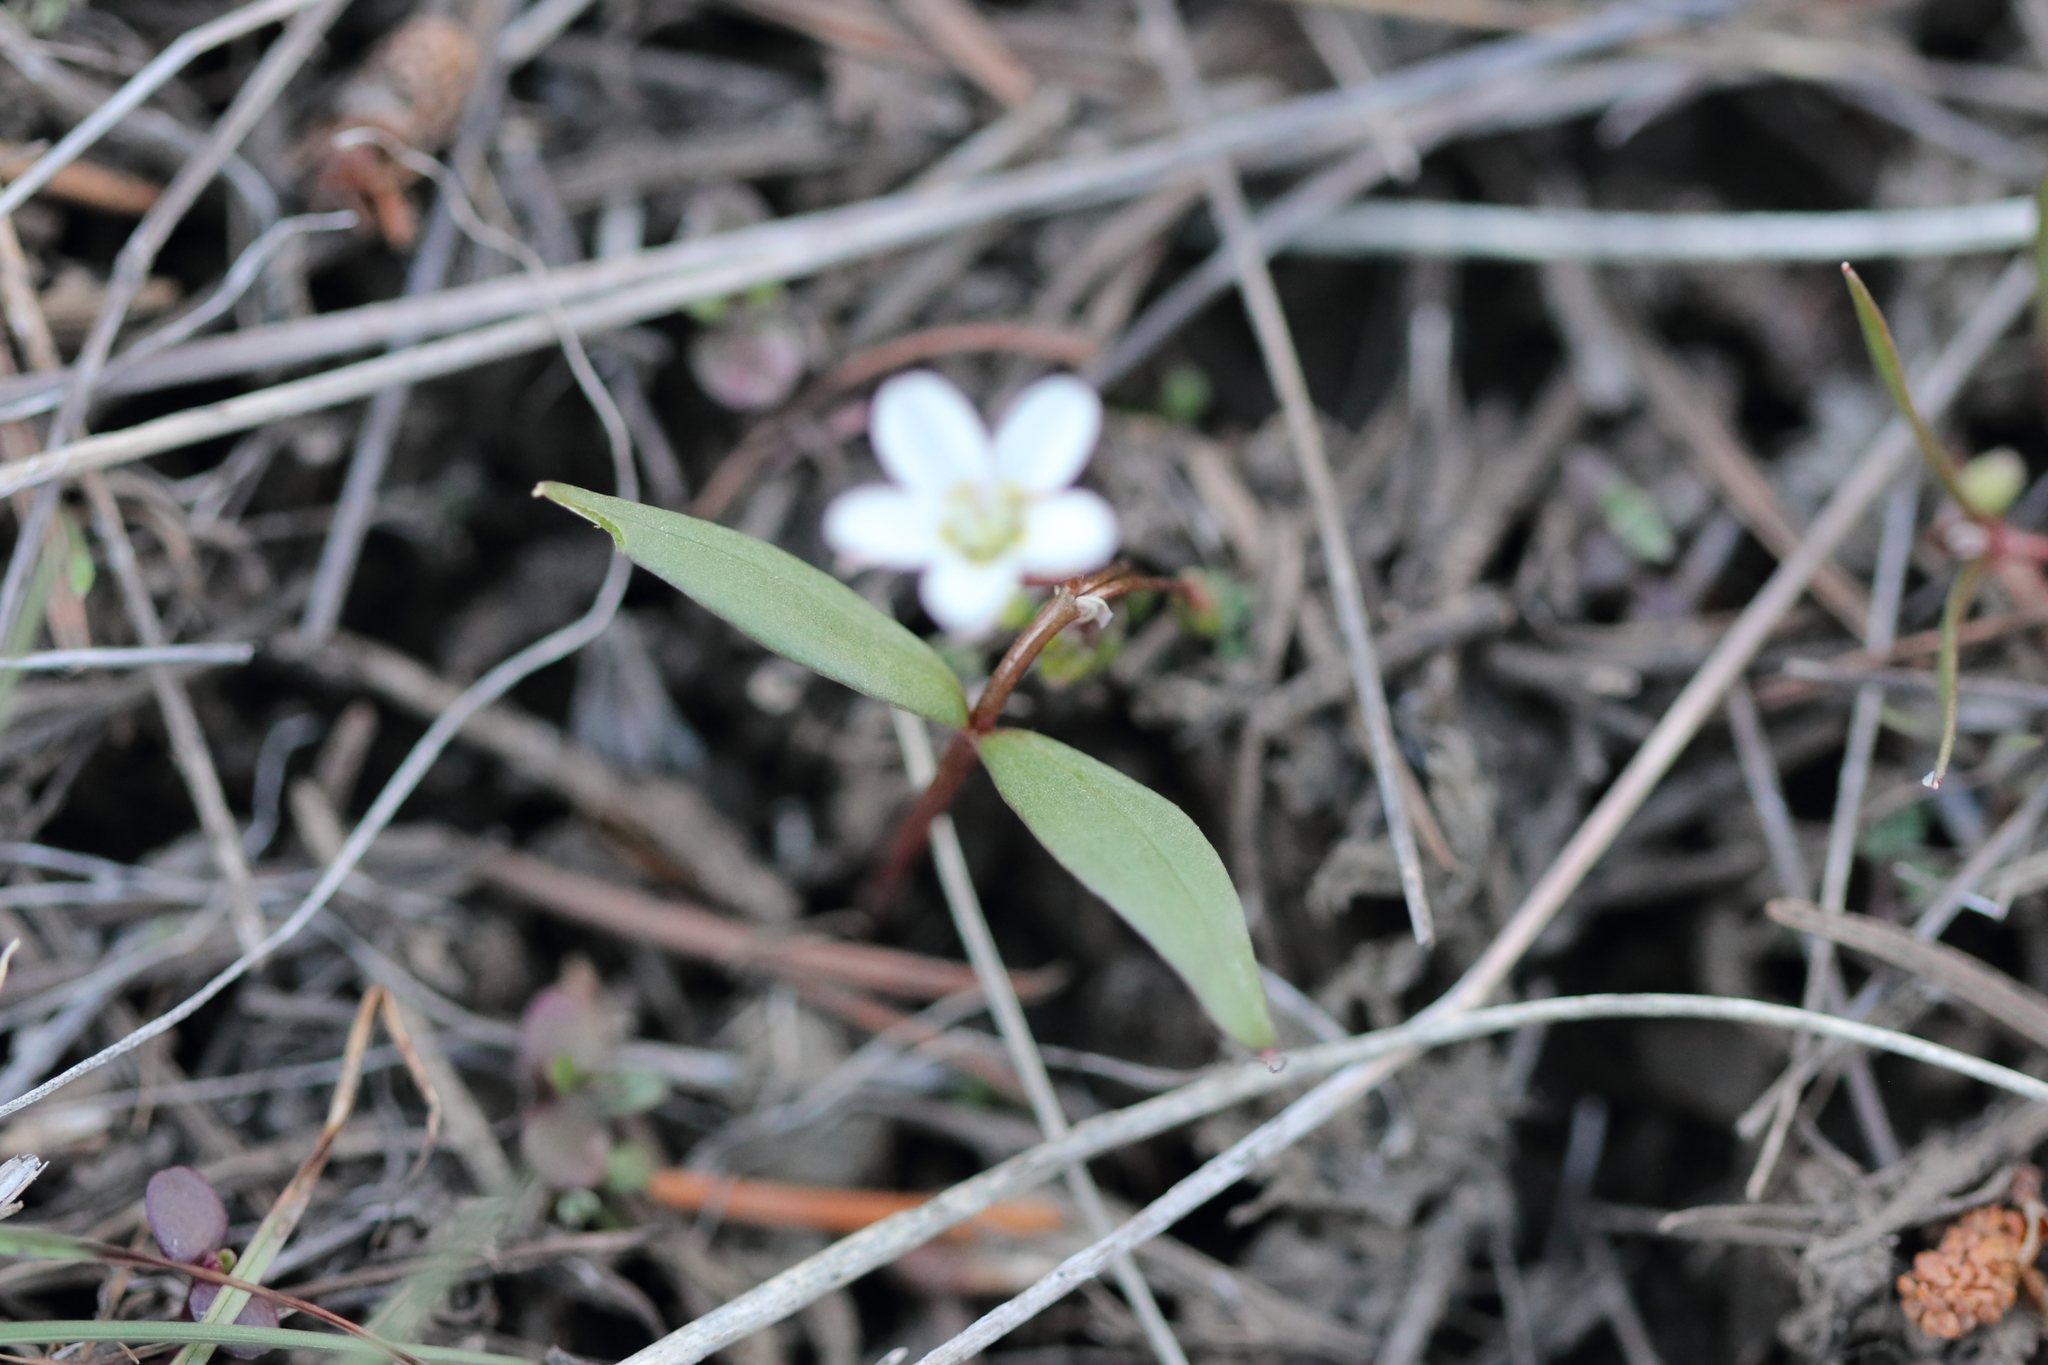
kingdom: Plantae
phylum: Tracheophyta
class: Magnoliopsida
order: Caryophyllales
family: Montiaceae
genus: Claytonia
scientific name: Claytonia lanceolata
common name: Western spring-beauty
